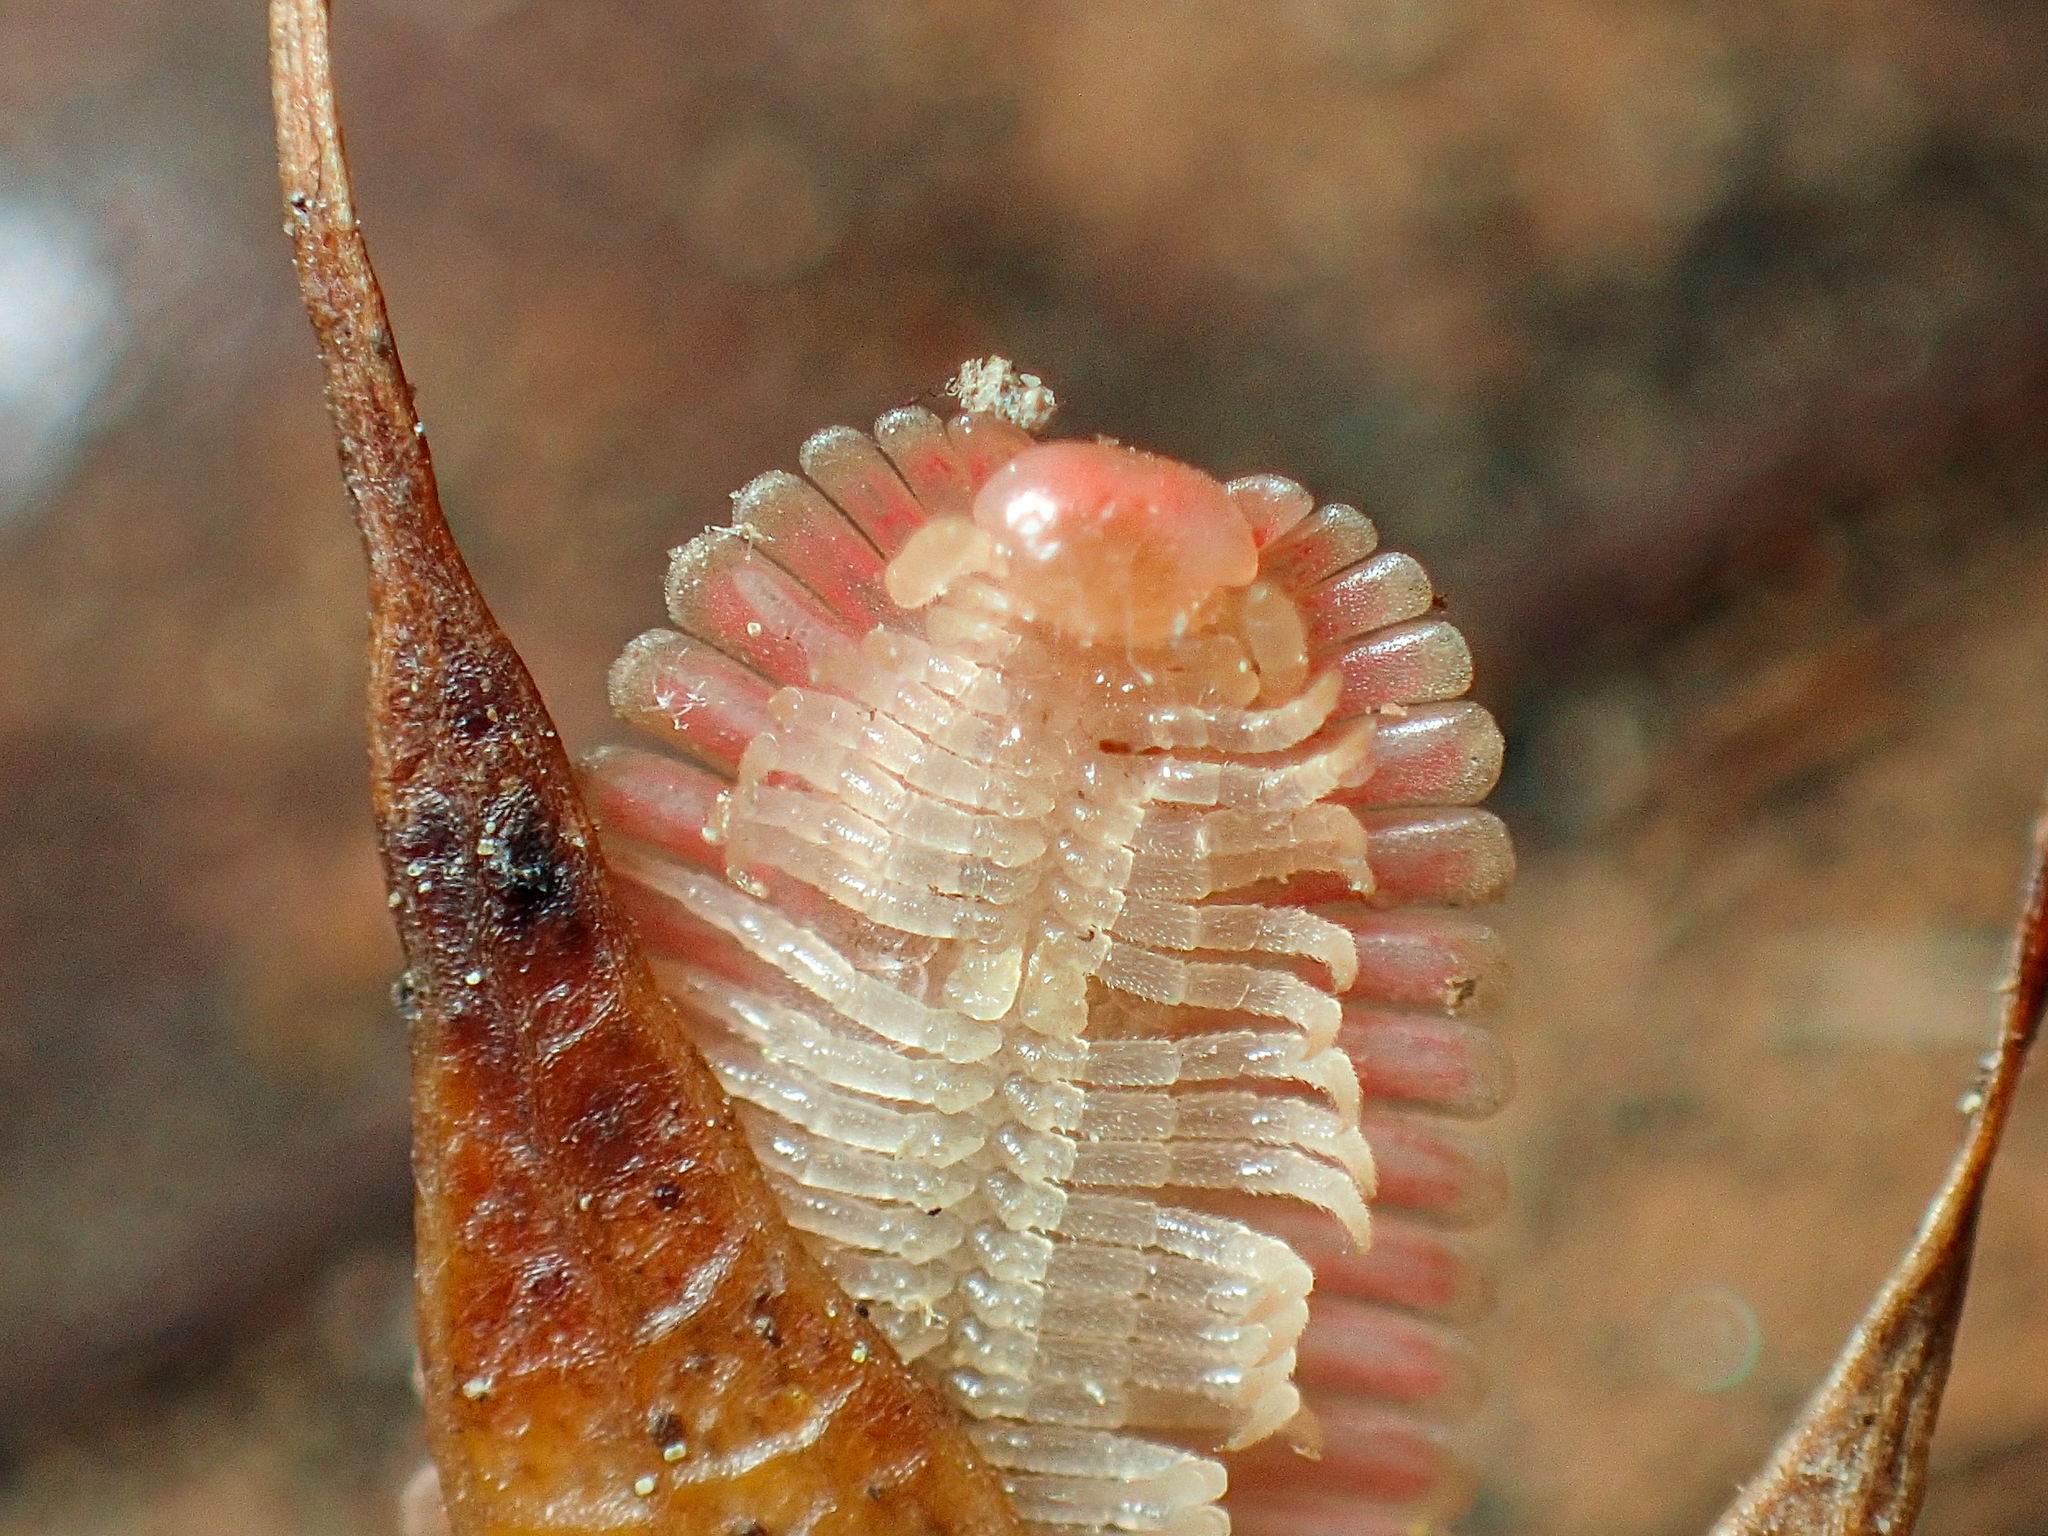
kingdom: Animalia
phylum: Arthropoda
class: Diplopoda
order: Platydesmida
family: Andrognathidae
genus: Brachycybe
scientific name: Brachycybe lecontii
